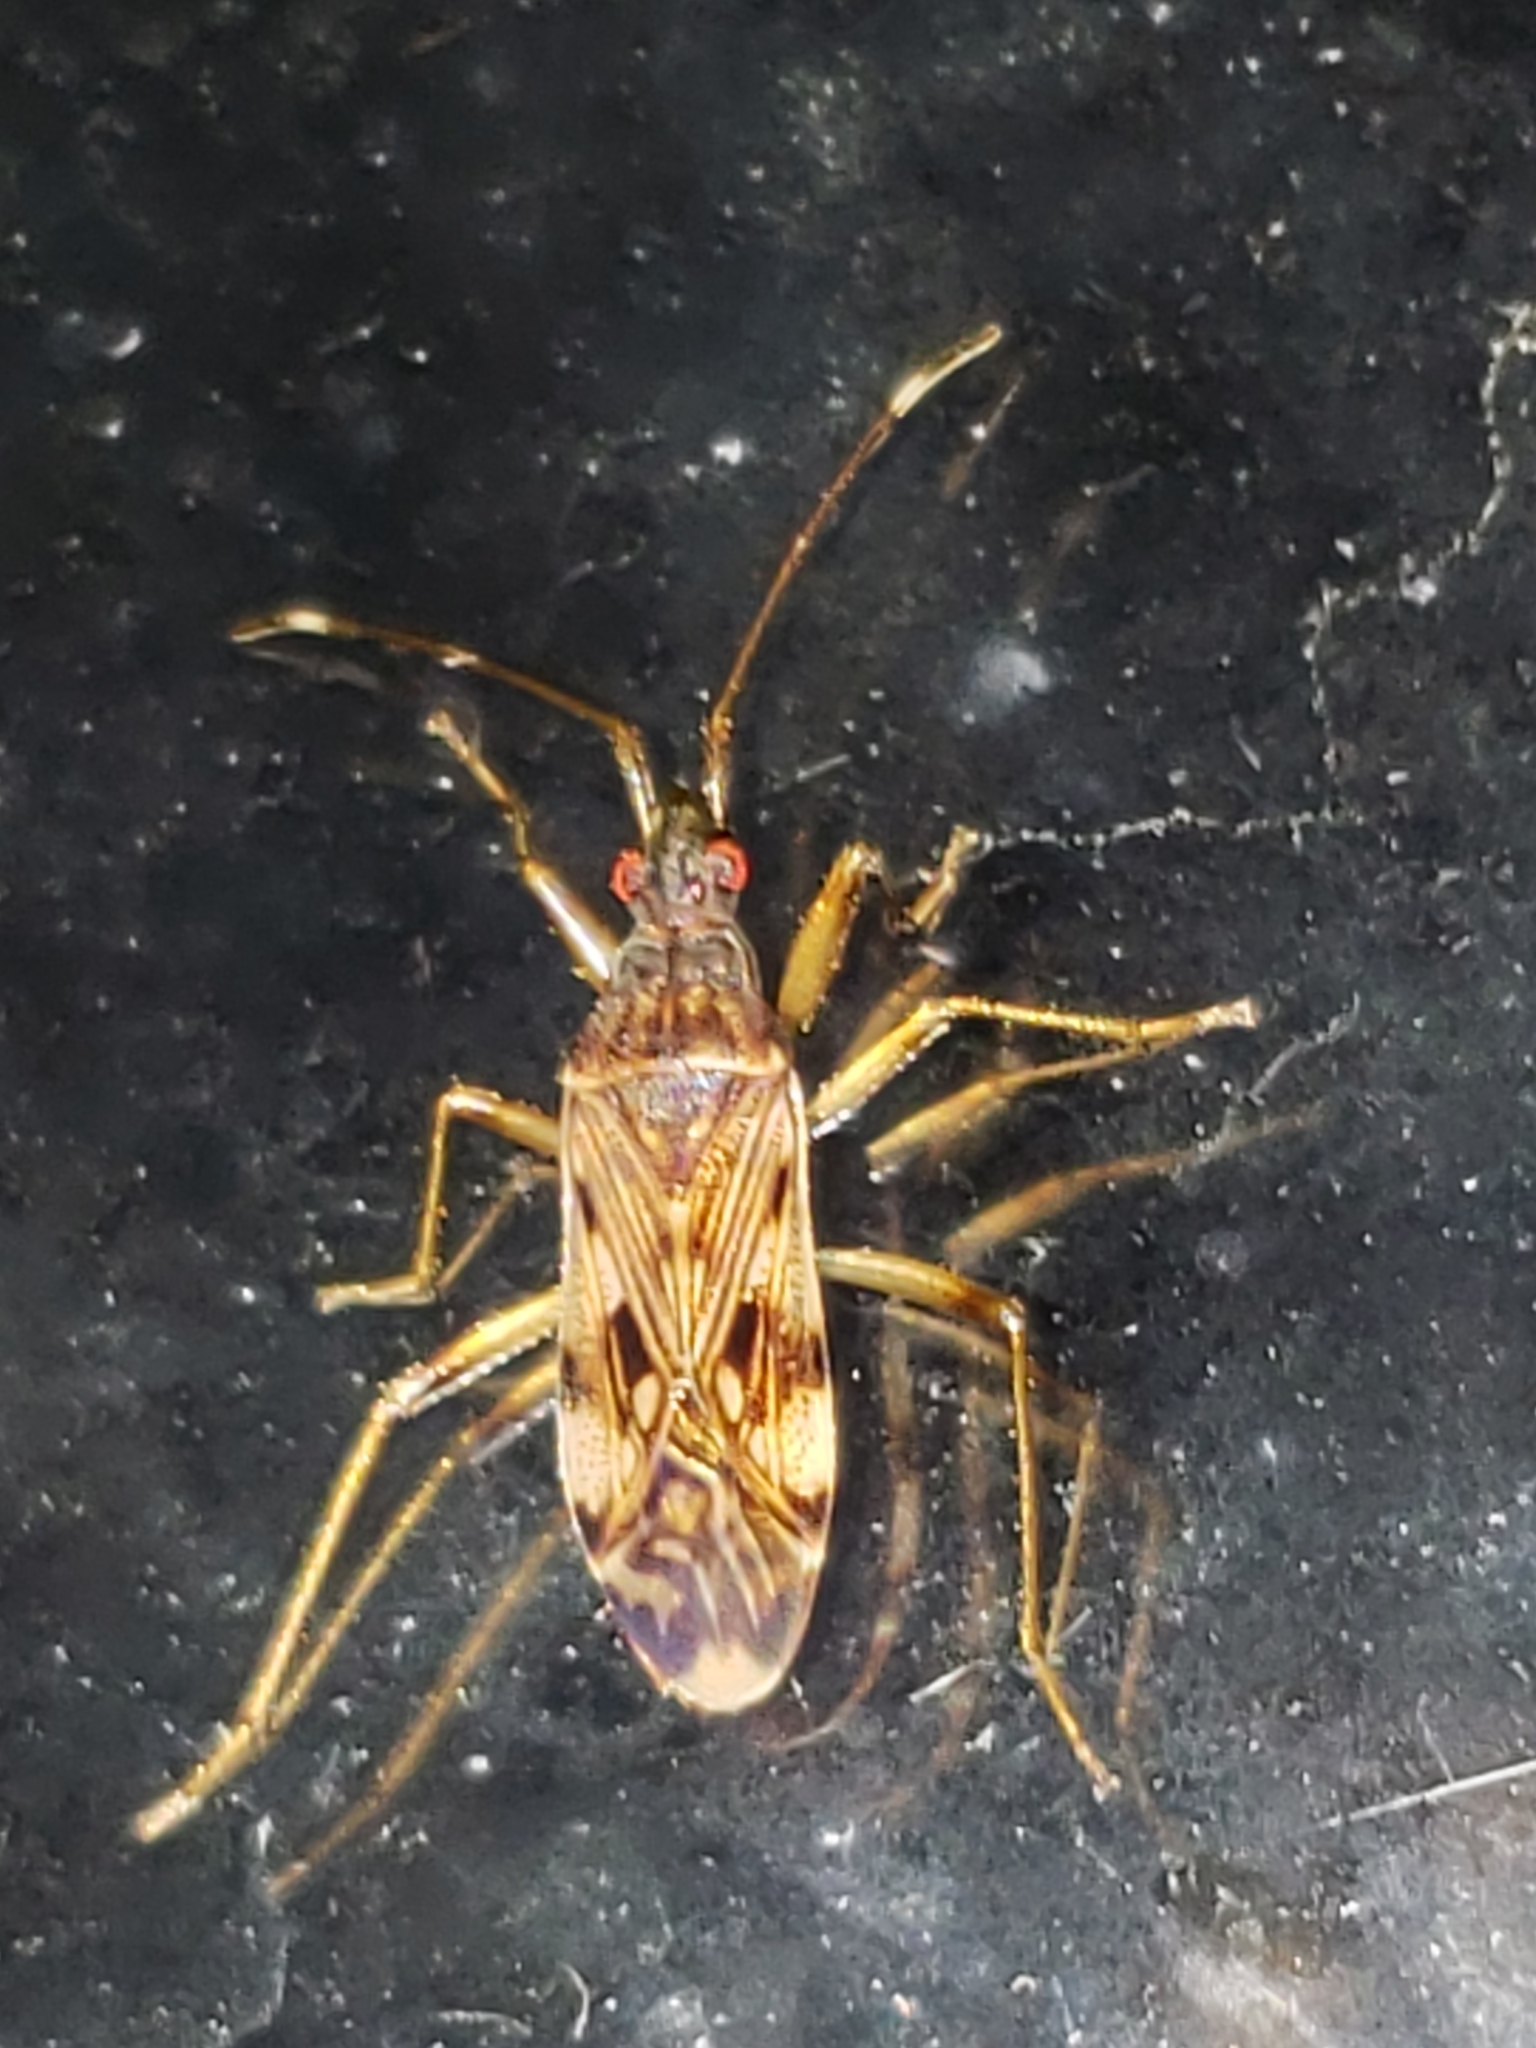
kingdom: Animalia
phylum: Arthropoda
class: Insecta
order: Hemiptera
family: Rhyparochromidae
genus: Ozophora
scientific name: Ozophora picturata
